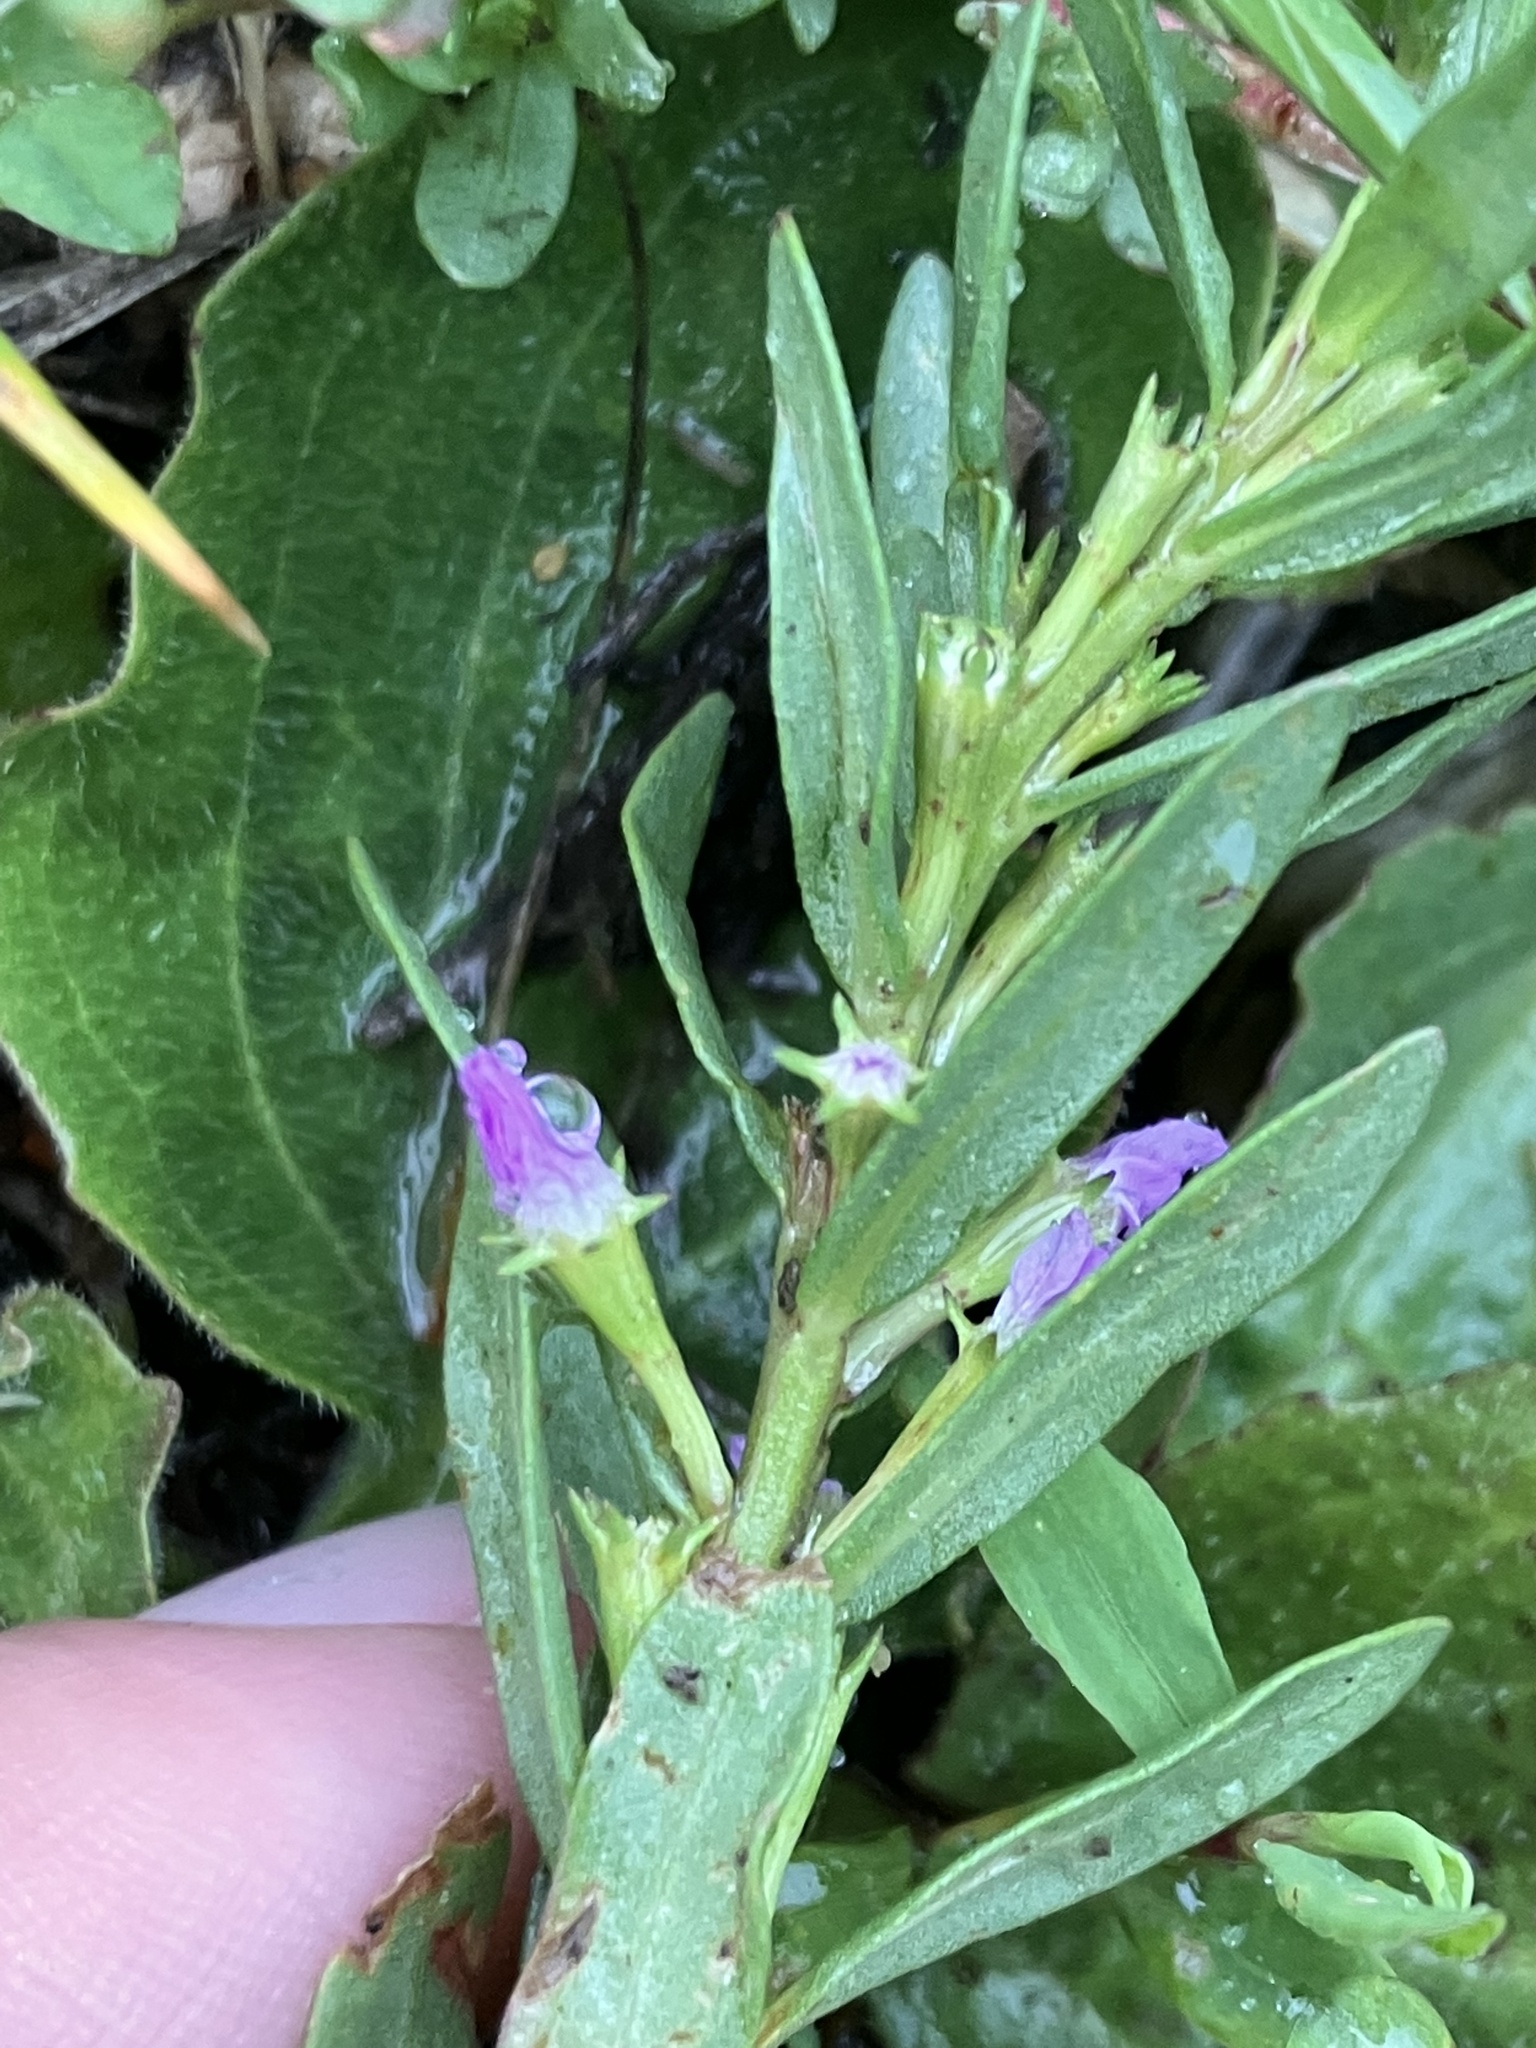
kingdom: Plantae
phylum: Tracheophyta
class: Magnoliopsida
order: Myrtales
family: Lythraceae
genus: Lythrum
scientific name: Lythrum hyssopifolia
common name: Grass-poly
